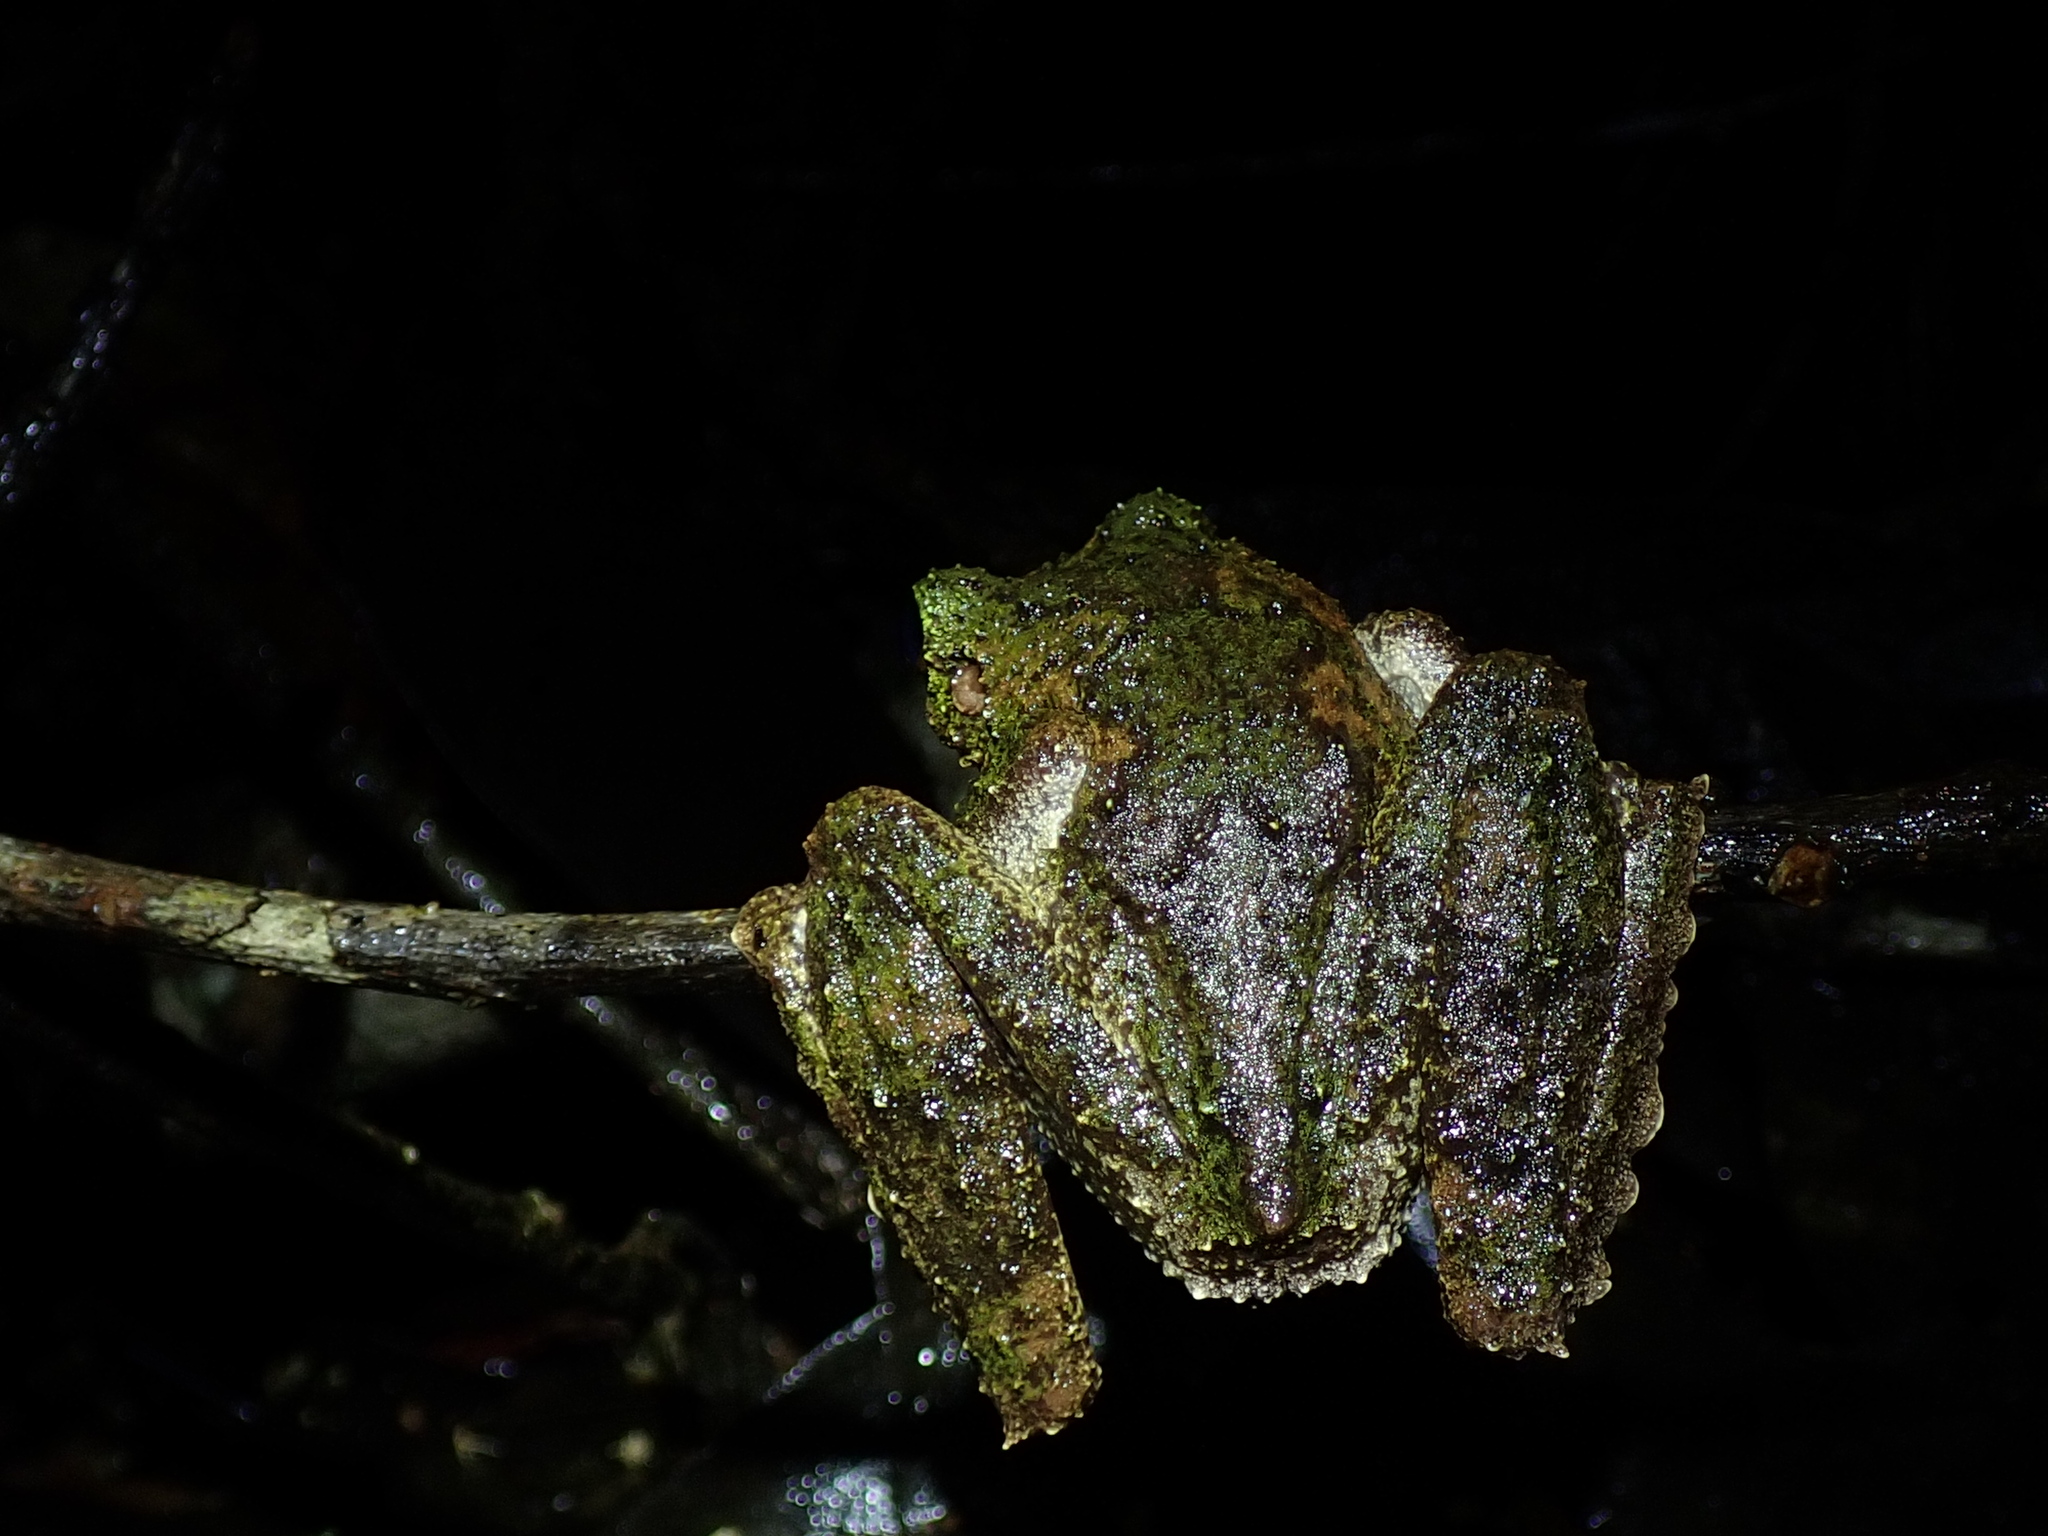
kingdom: Animalia
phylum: Chordata
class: Amphibia
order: Anura
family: Pelodryadidae
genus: Ranoidea
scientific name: Ranoidea serrata
